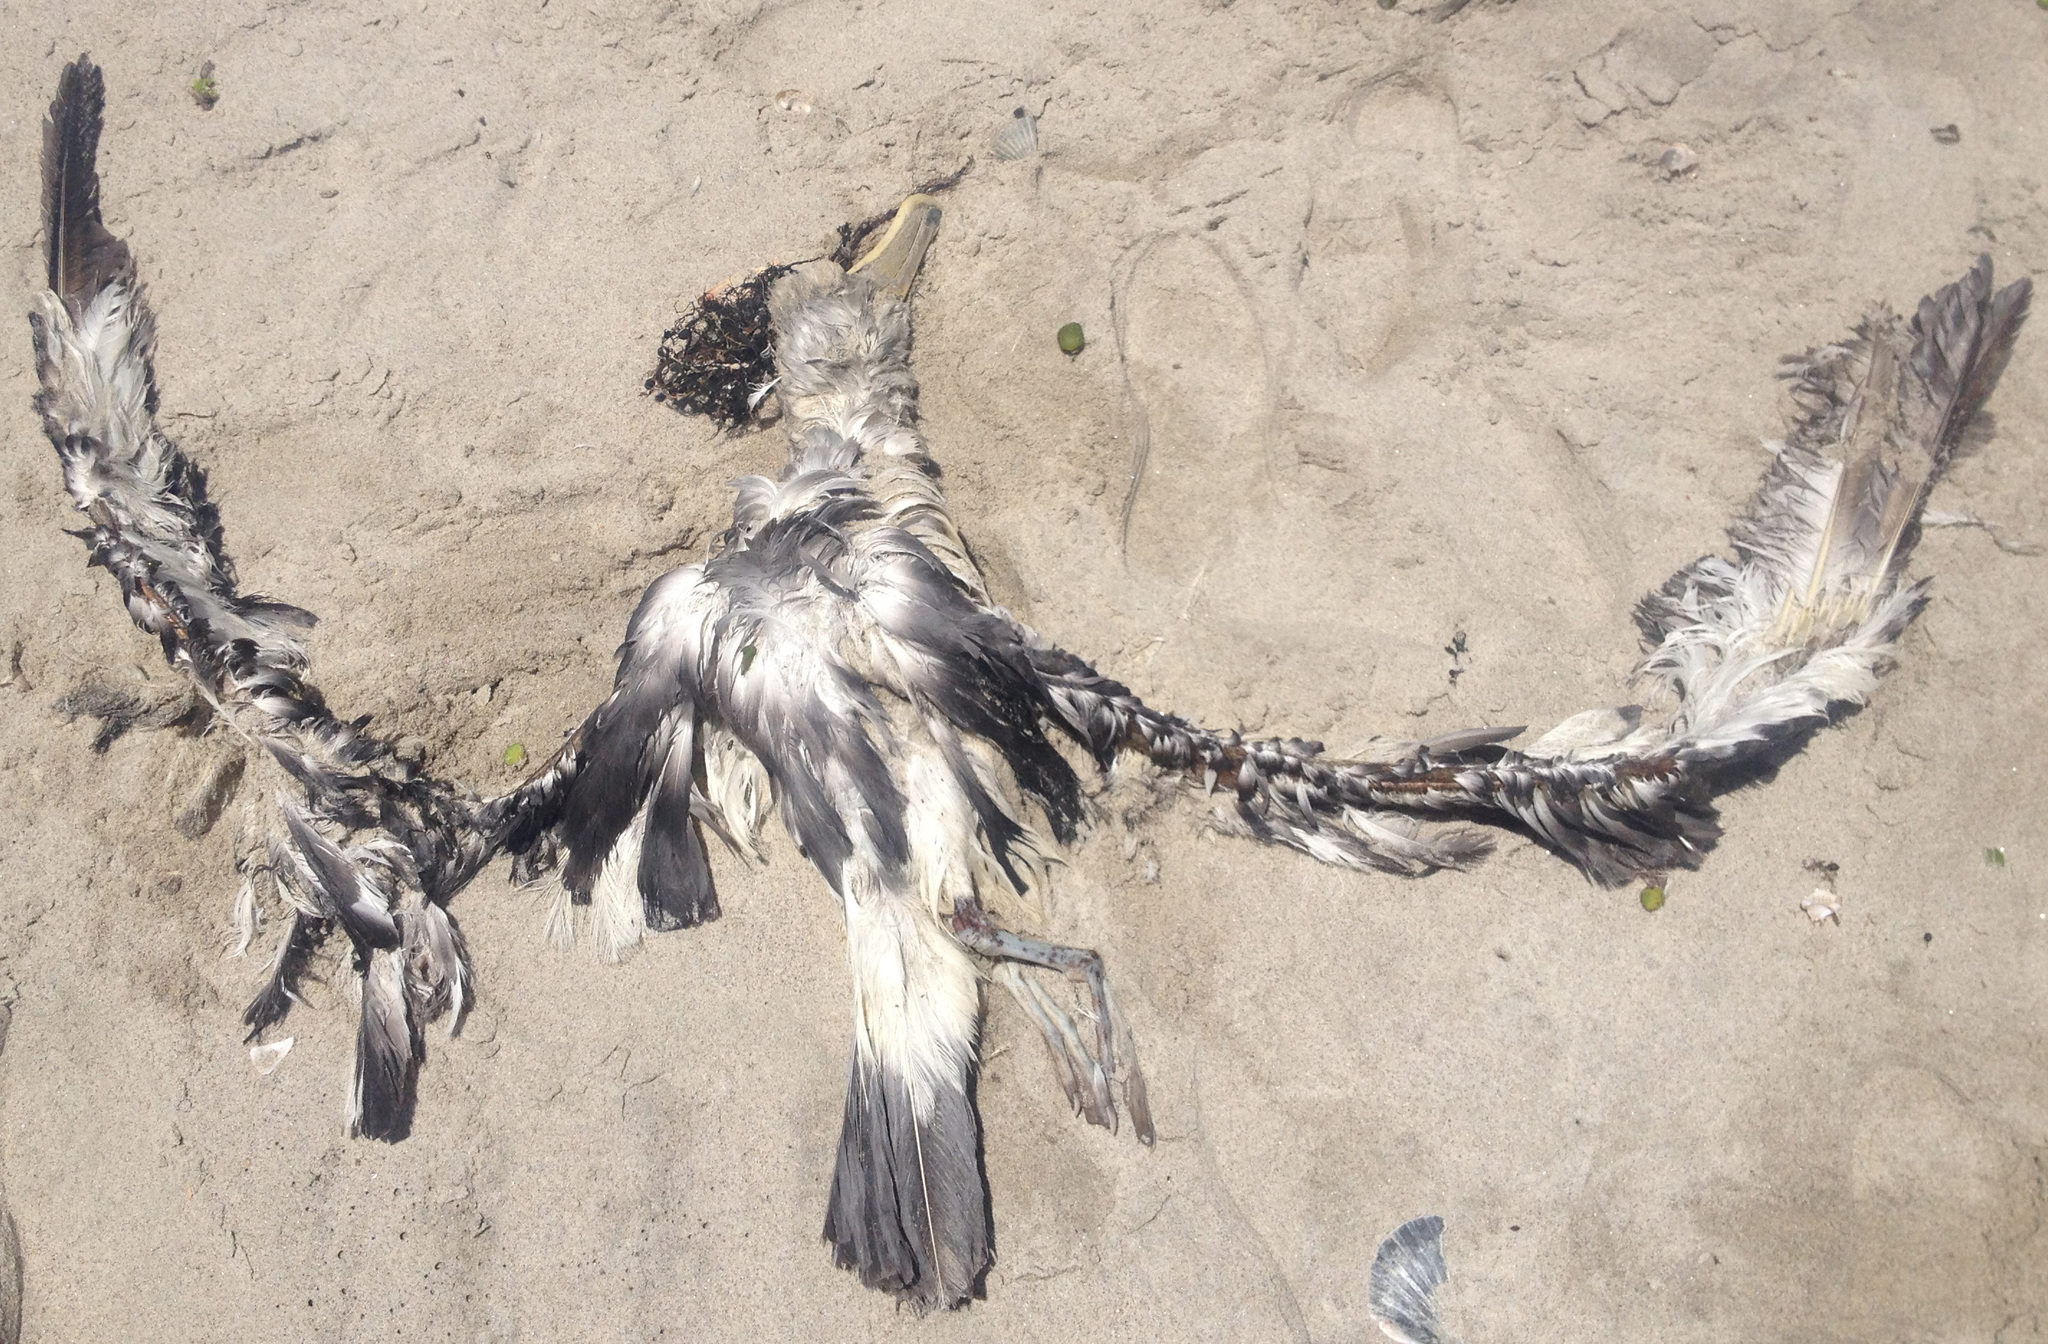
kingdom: Animalia
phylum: Chordata
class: Aves
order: Procellariiformes
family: Diomedeidae
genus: Thalassarche
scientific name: Thalassarche salvini
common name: Salvin's albatross
